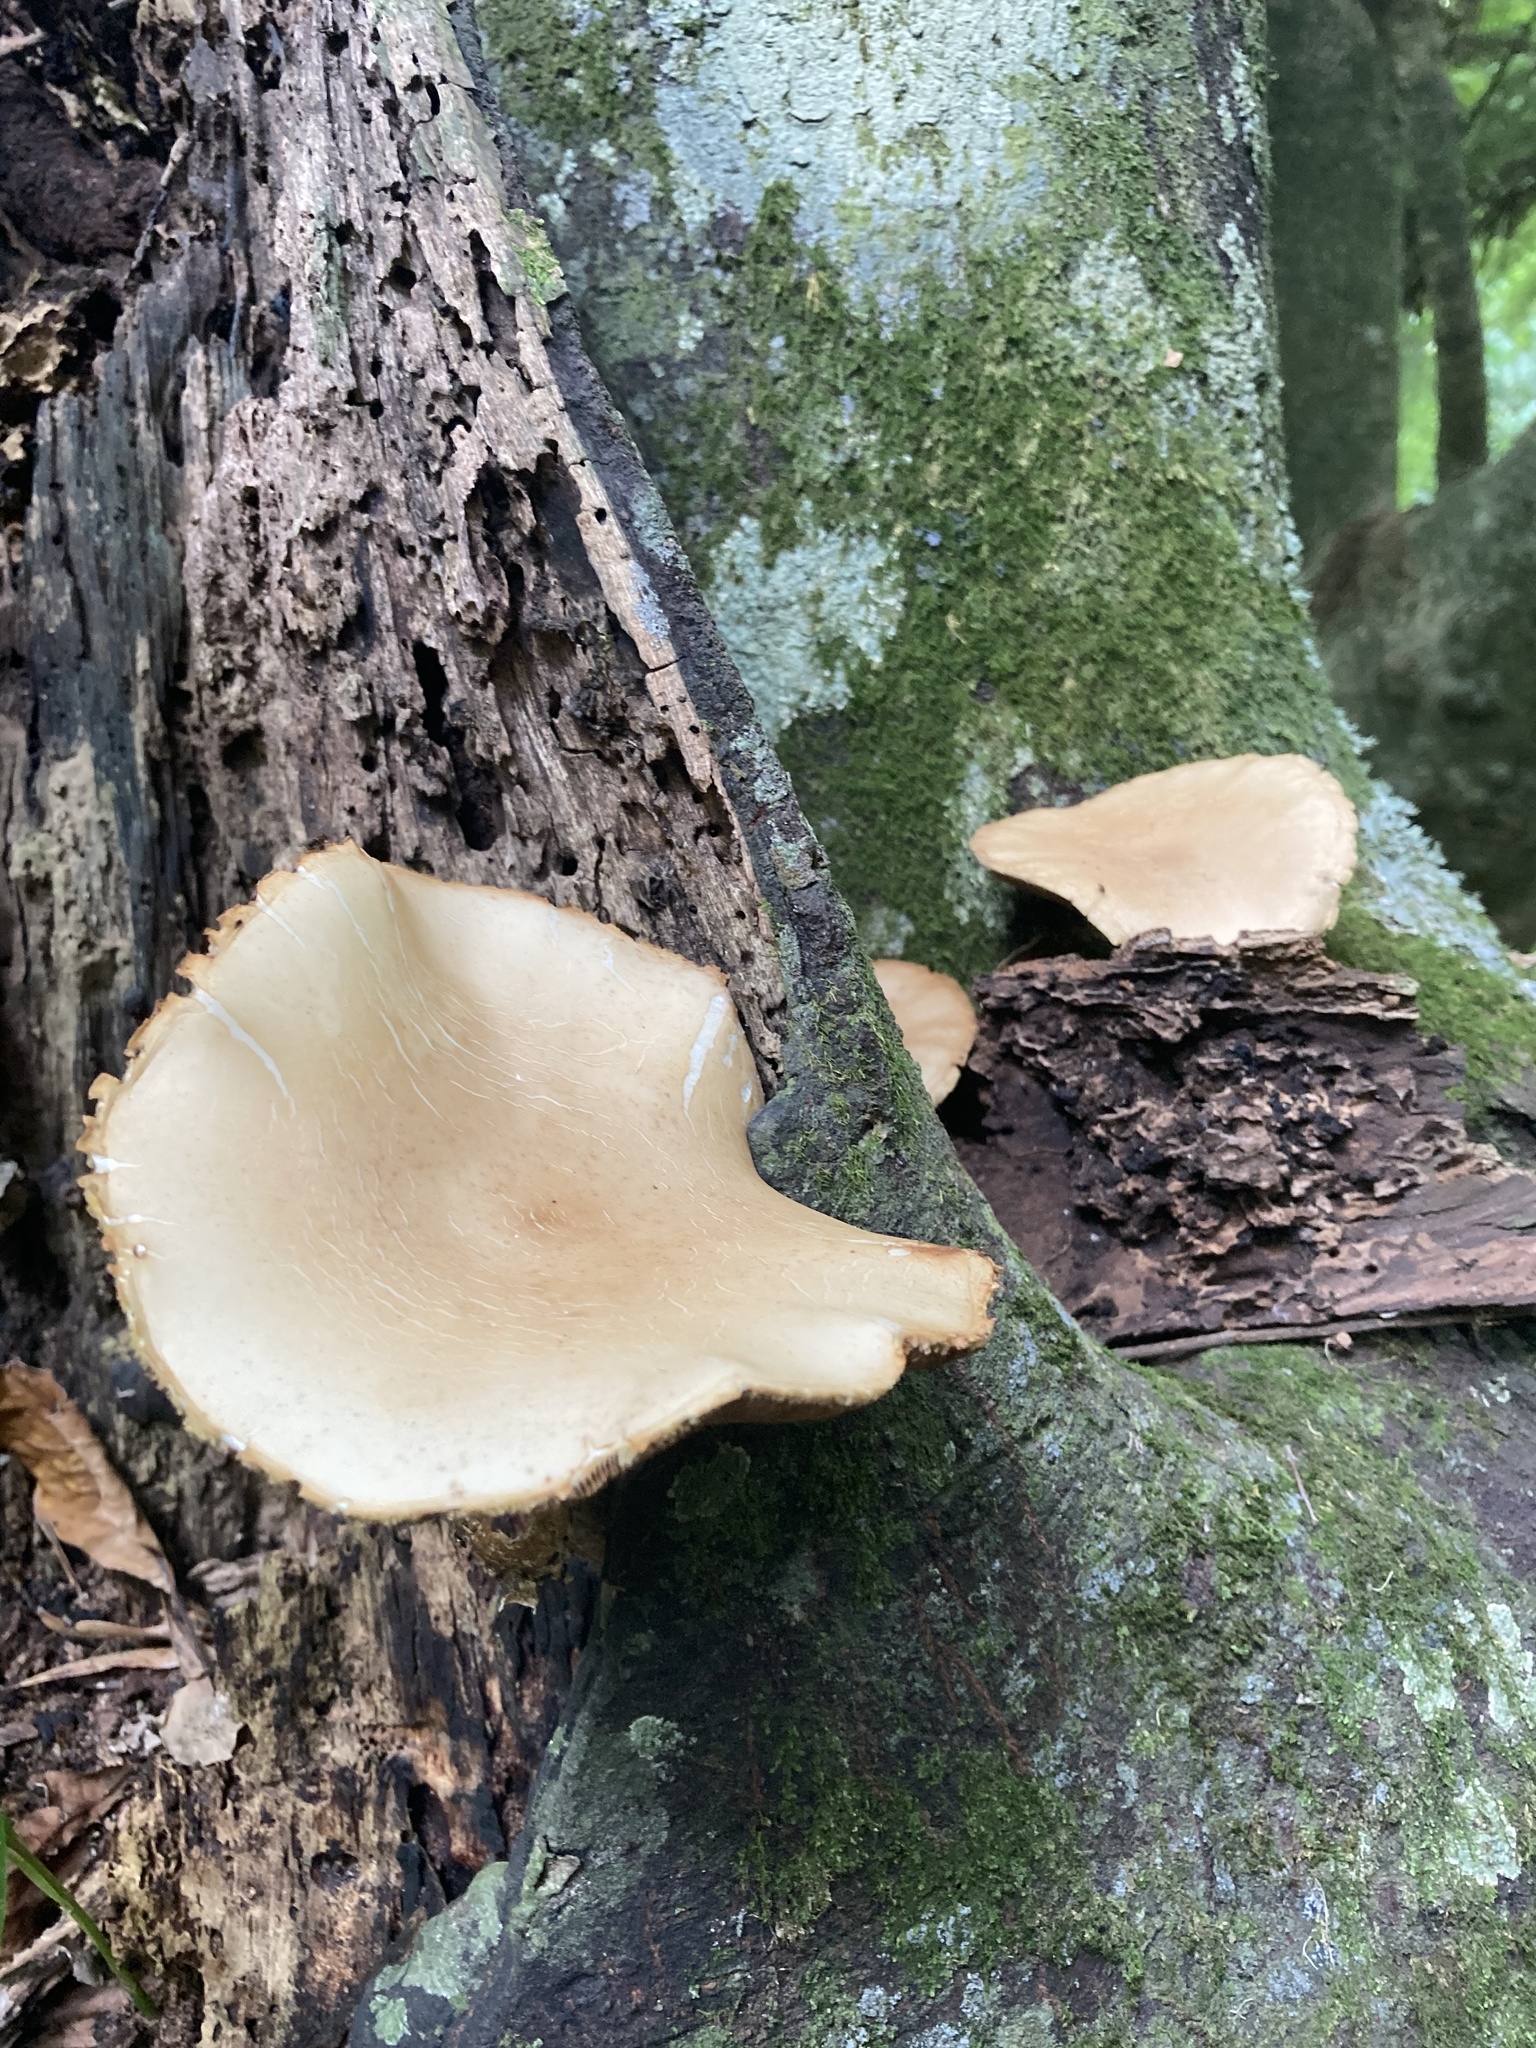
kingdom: Fungi
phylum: Basidiomycota
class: Agaricomycetes
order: Agaricales
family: Tubariaceae
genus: Cyclocybe
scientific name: Cyclocybe parasitica
